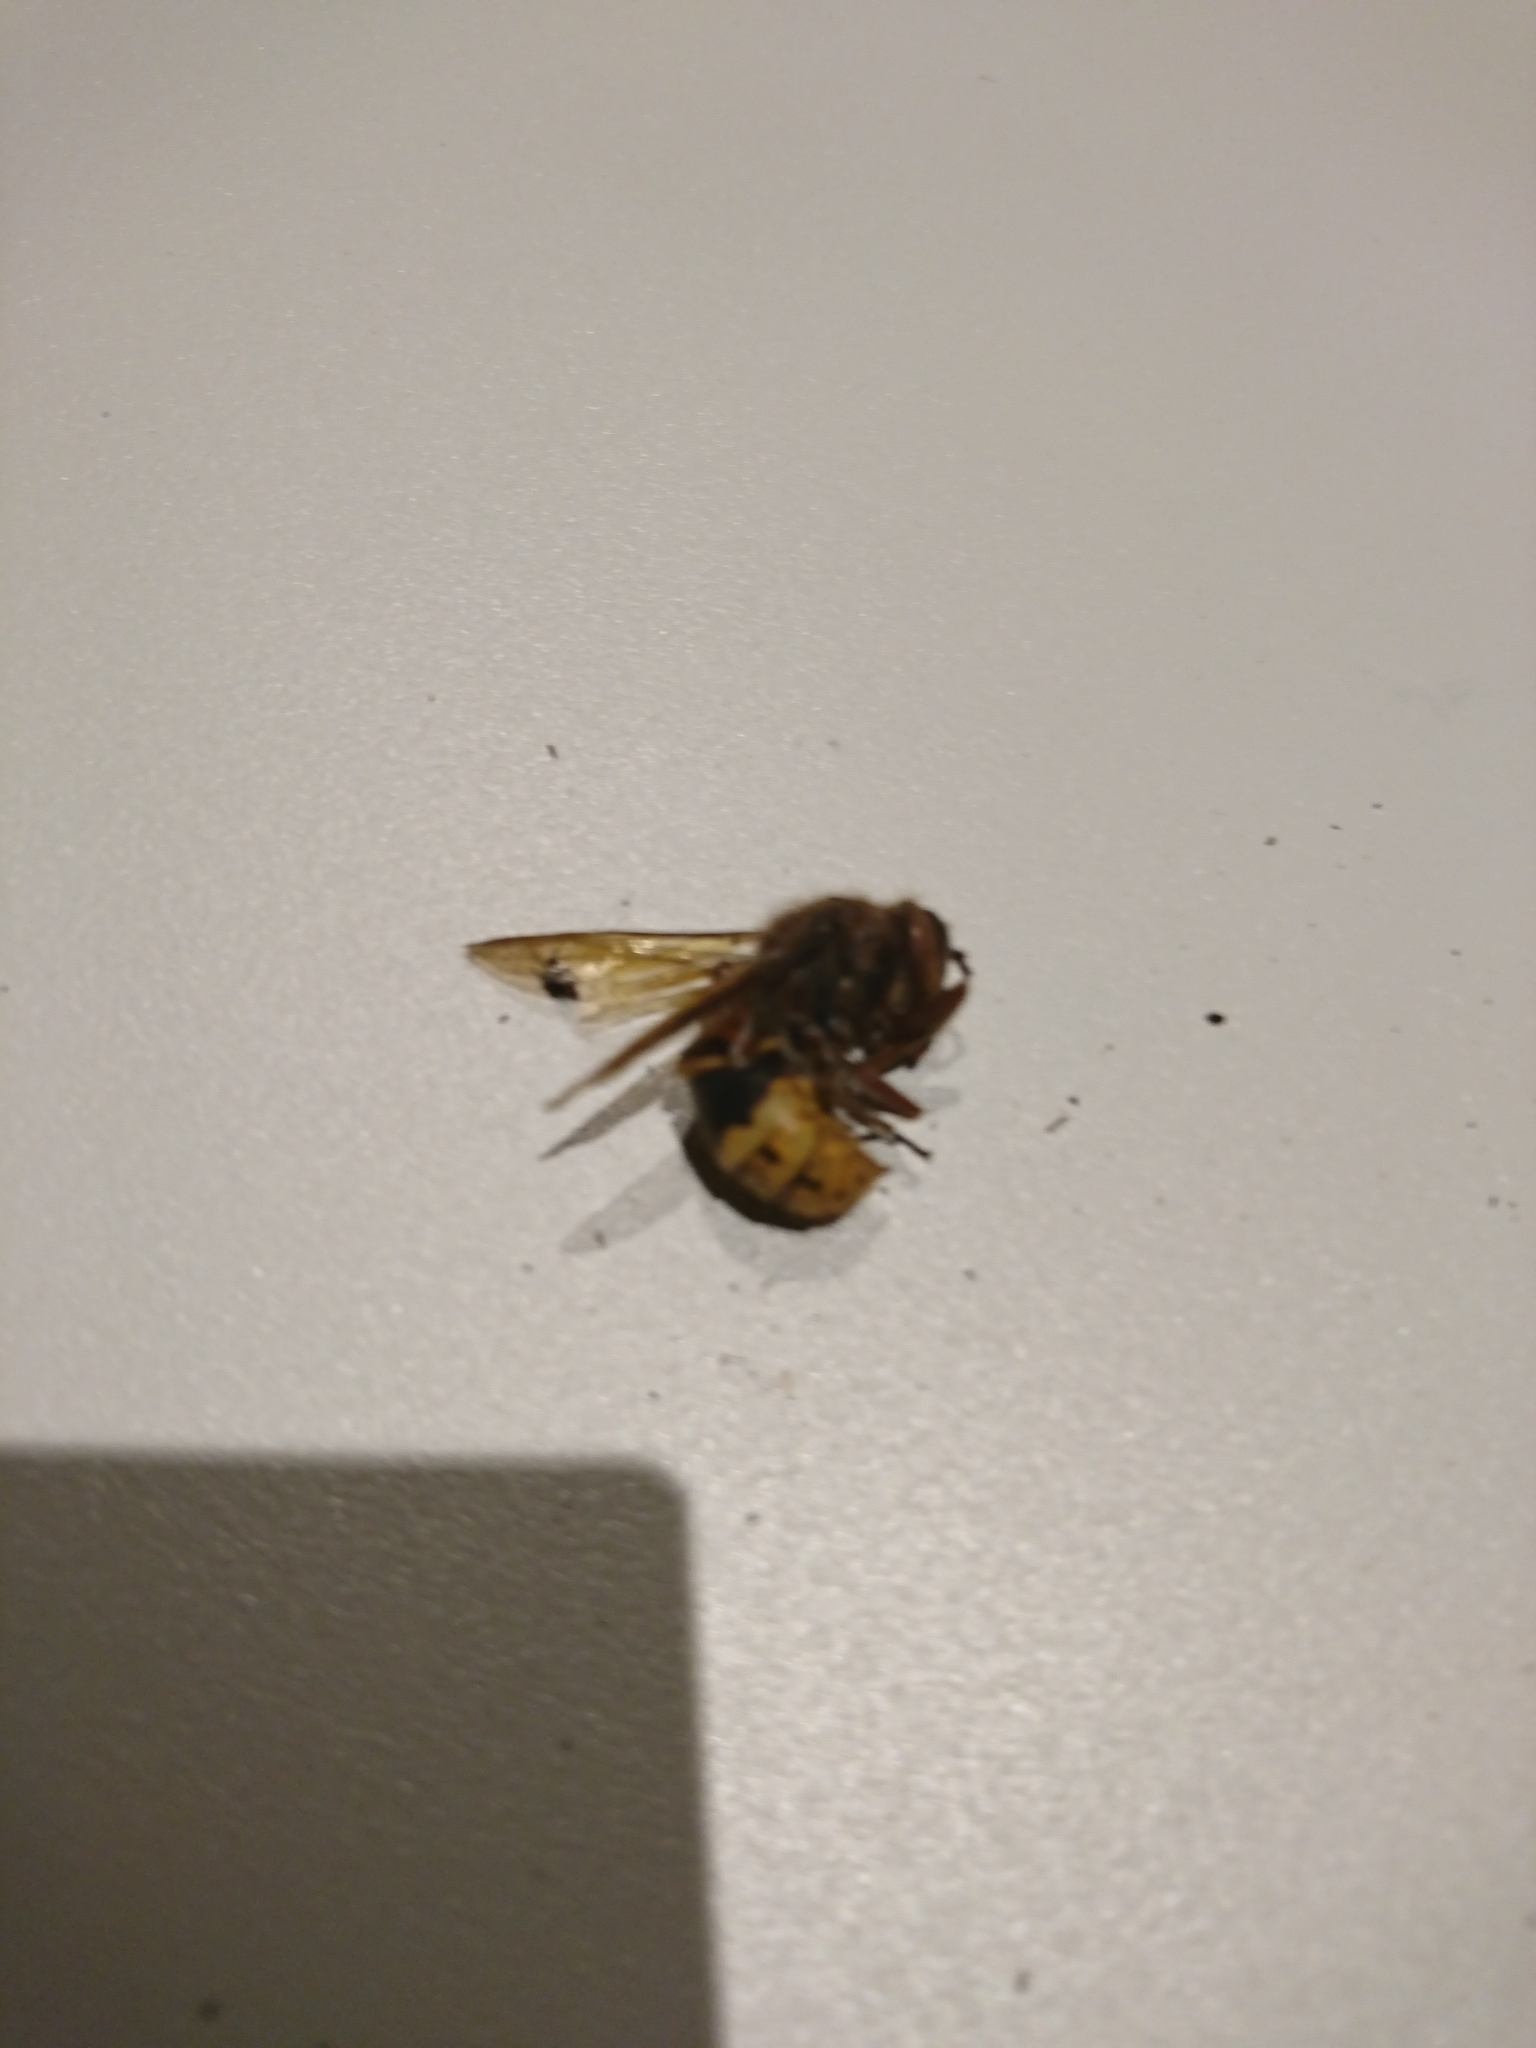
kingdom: Animalia
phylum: Arthropoda
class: Insecta
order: Hymenoptera
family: Vespidae
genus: Vespa
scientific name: Vespa crabro
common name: Hornet
